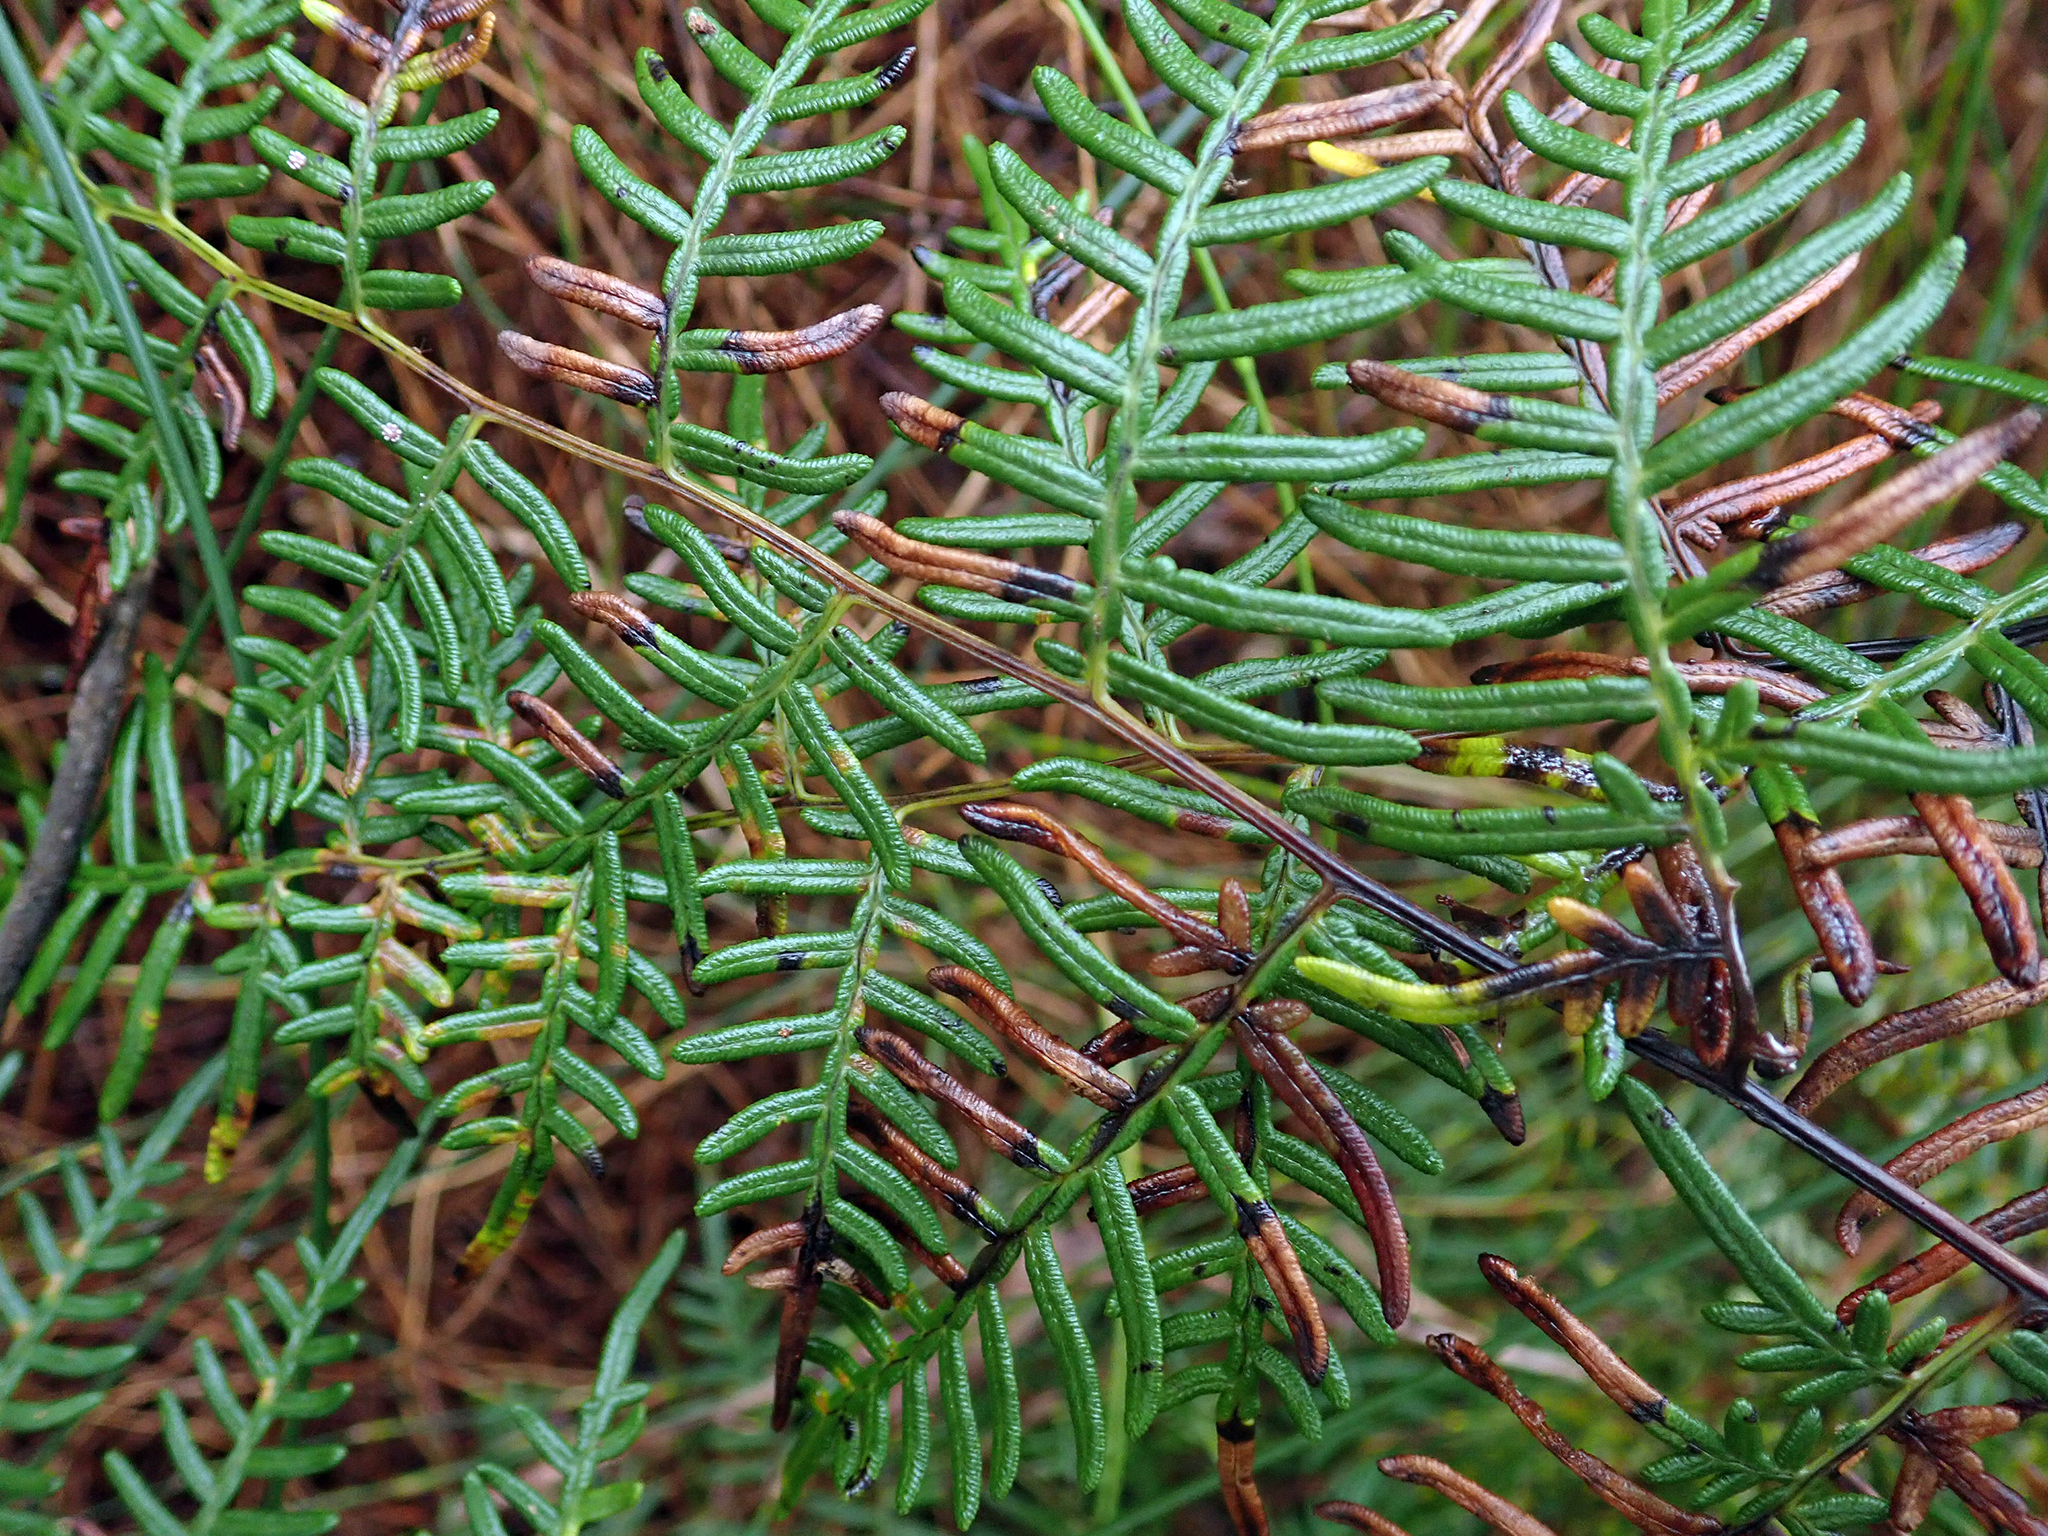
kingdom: Plantae
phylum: Tracheophyta
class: Polypodiopsida
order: Polypodiales
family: Dennstaedtiaceae
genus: Pteridium
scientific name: Pteridium esculentum
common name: Bracken fern
